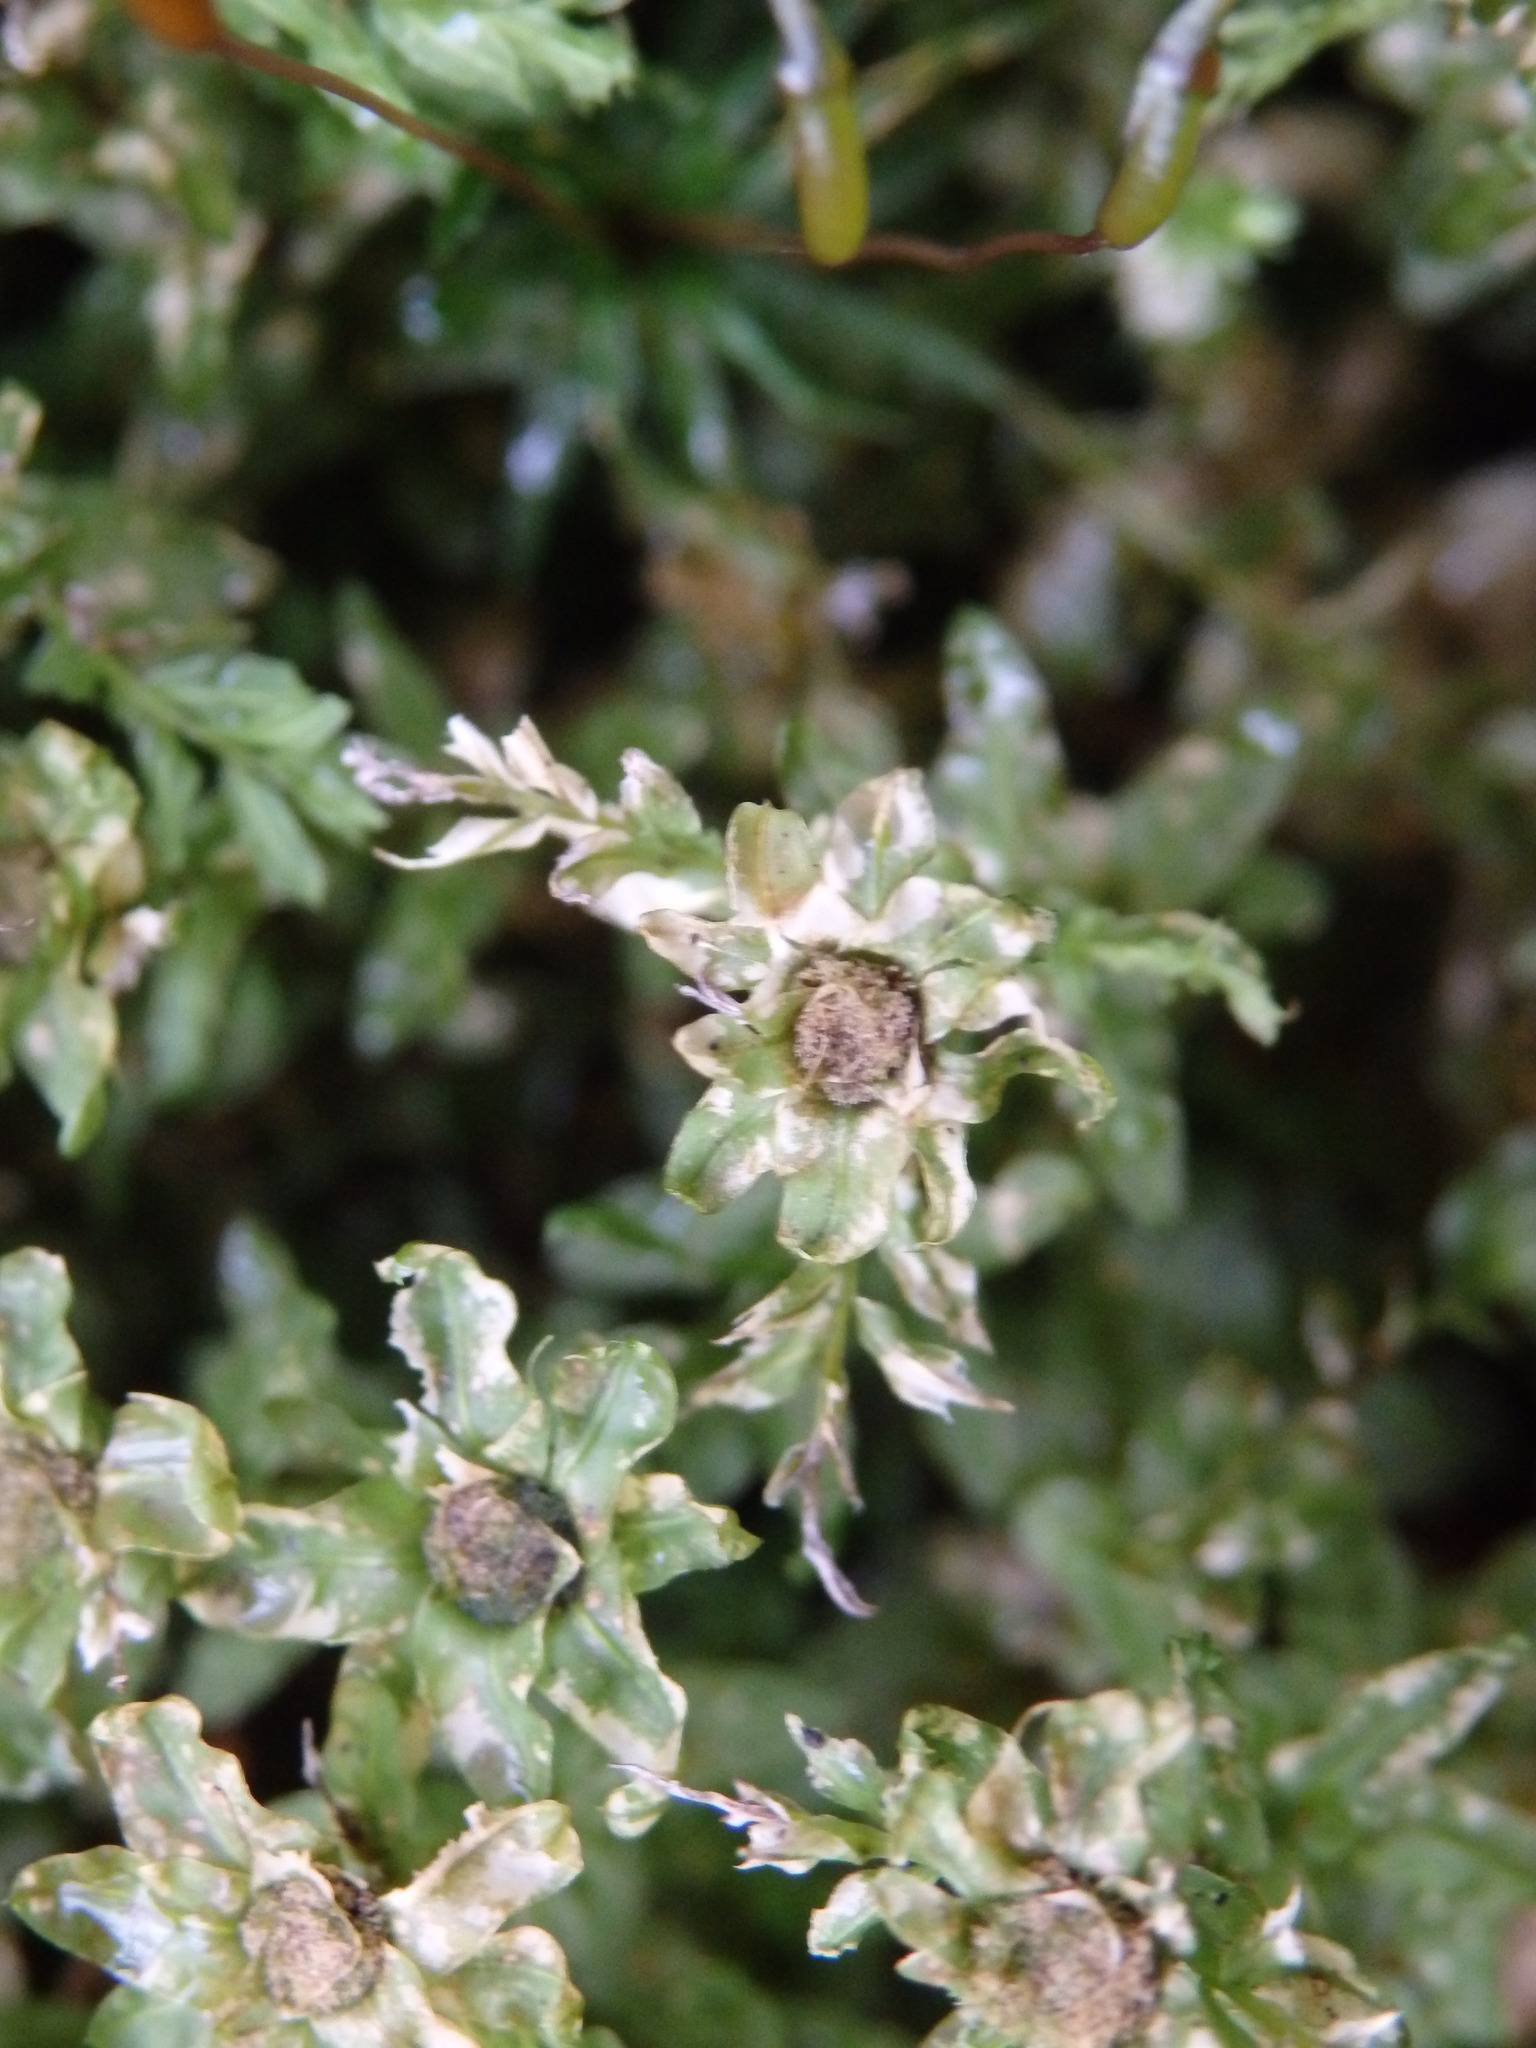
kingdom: Plantae
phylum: Bryophyta
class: Bryopsida
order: Bryales
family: Mniaceae
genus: Plagiomnium
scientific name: Plagiomnium undulatum
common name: Hart's-tongue thyme-moss
